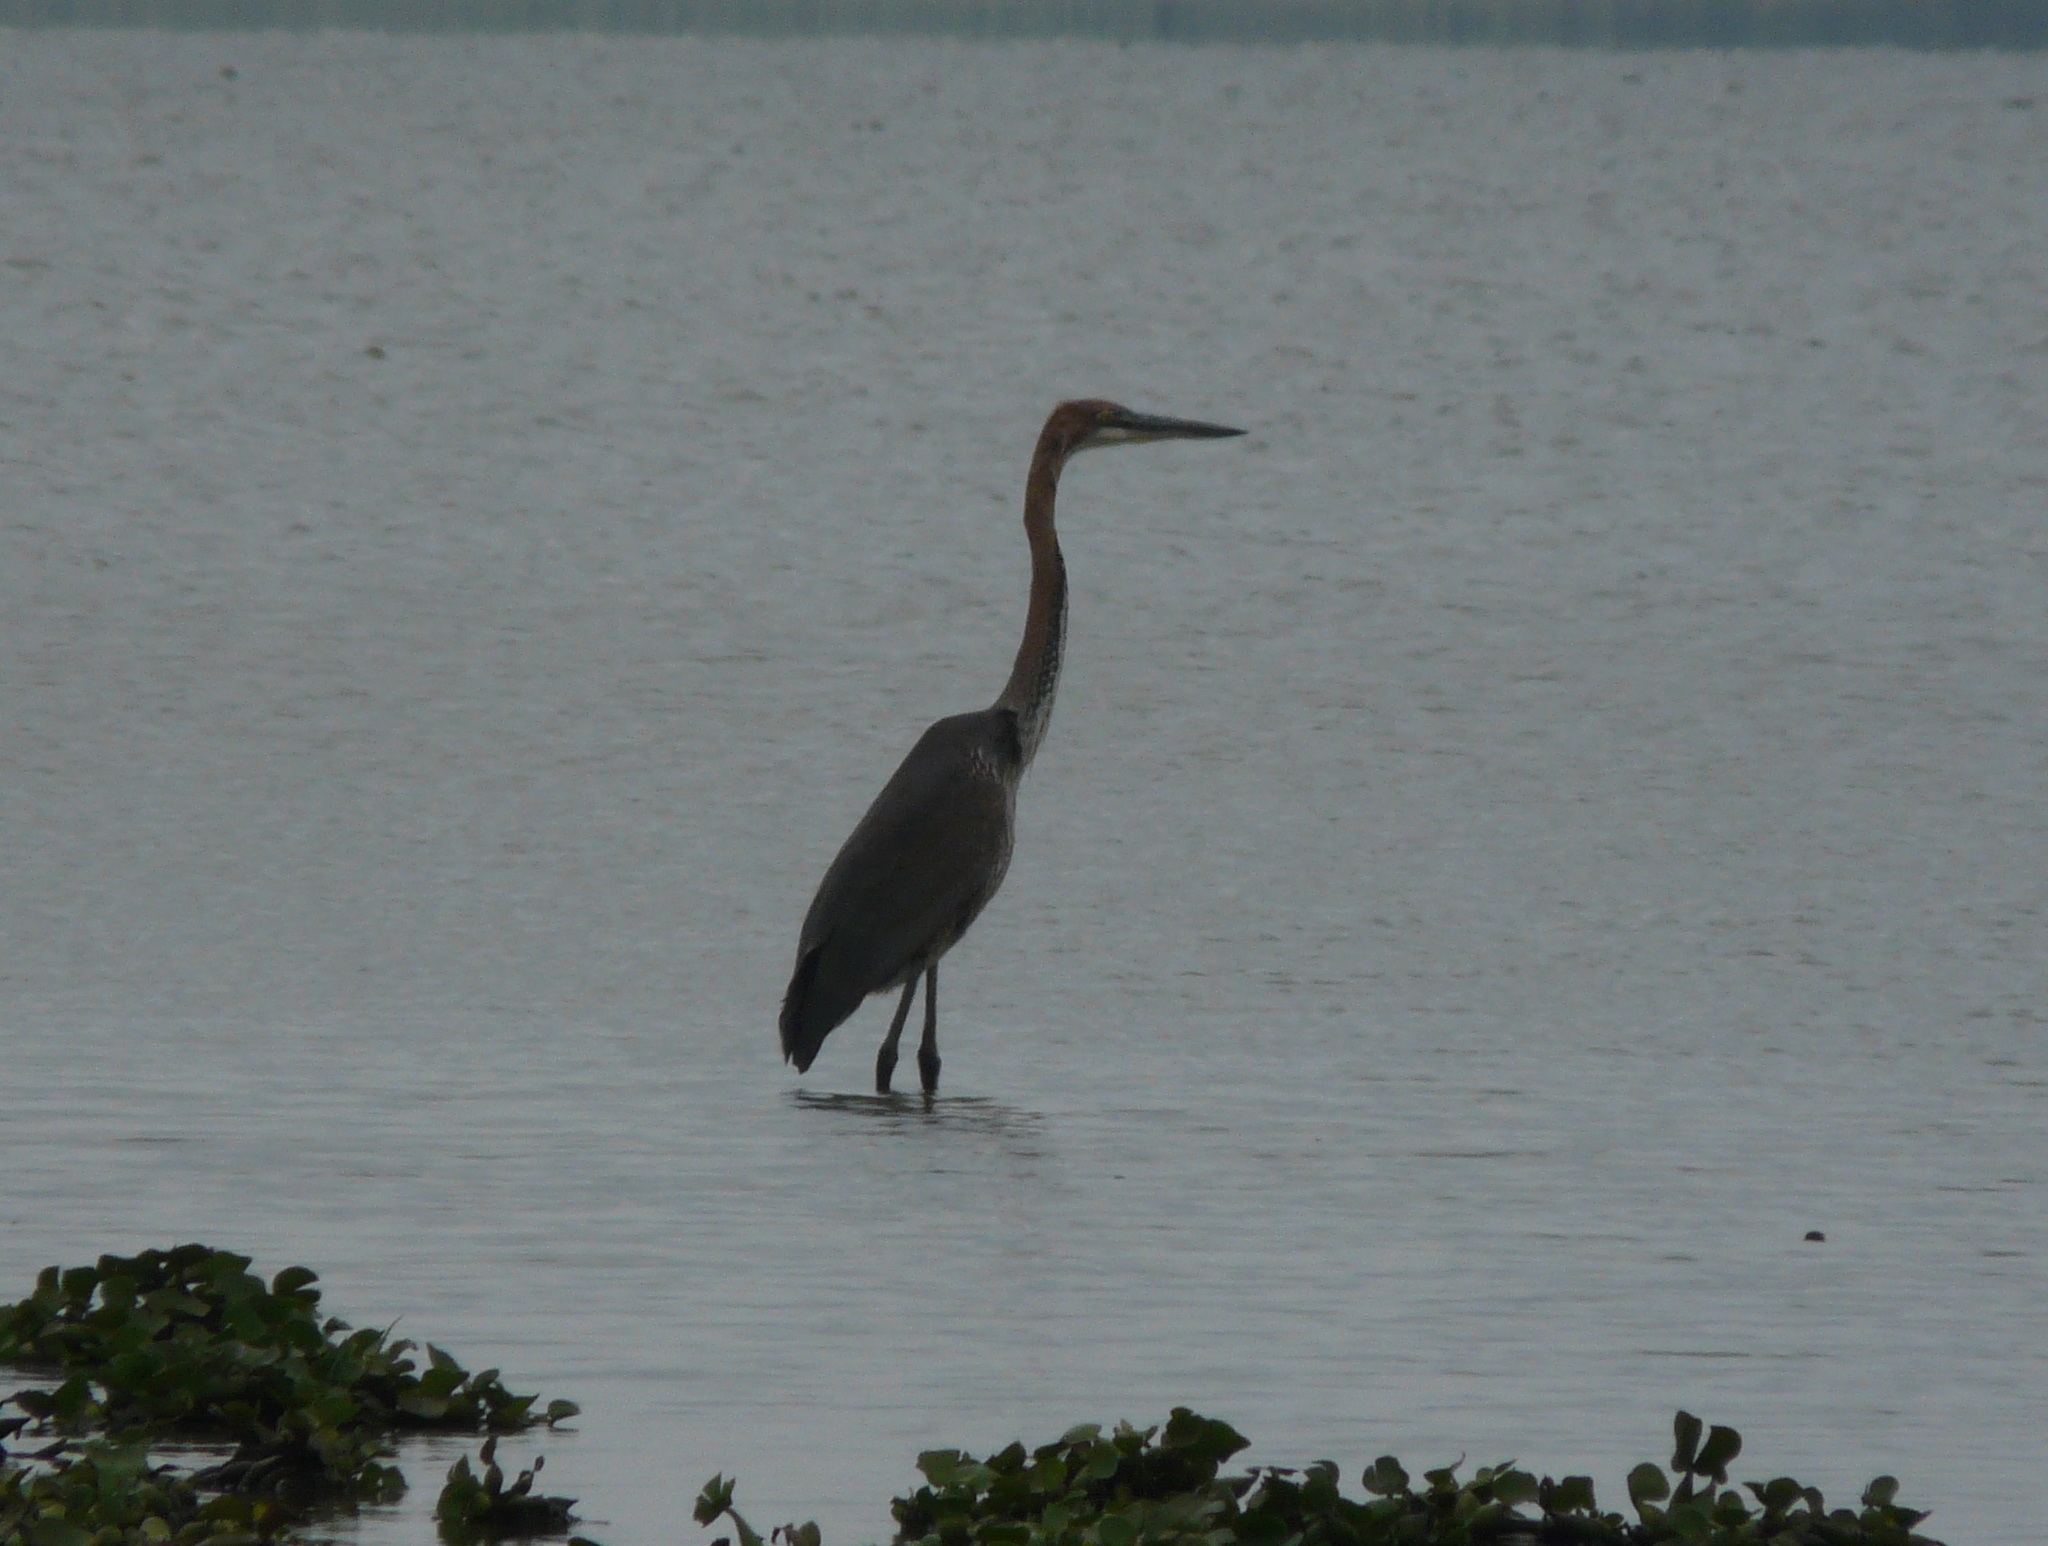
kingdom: Animalia
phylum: Chordata
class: Aves
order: Pelecaniformes
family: Ardeidae
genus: Ardea
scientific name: Ardea goliath
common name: Goliath heron
